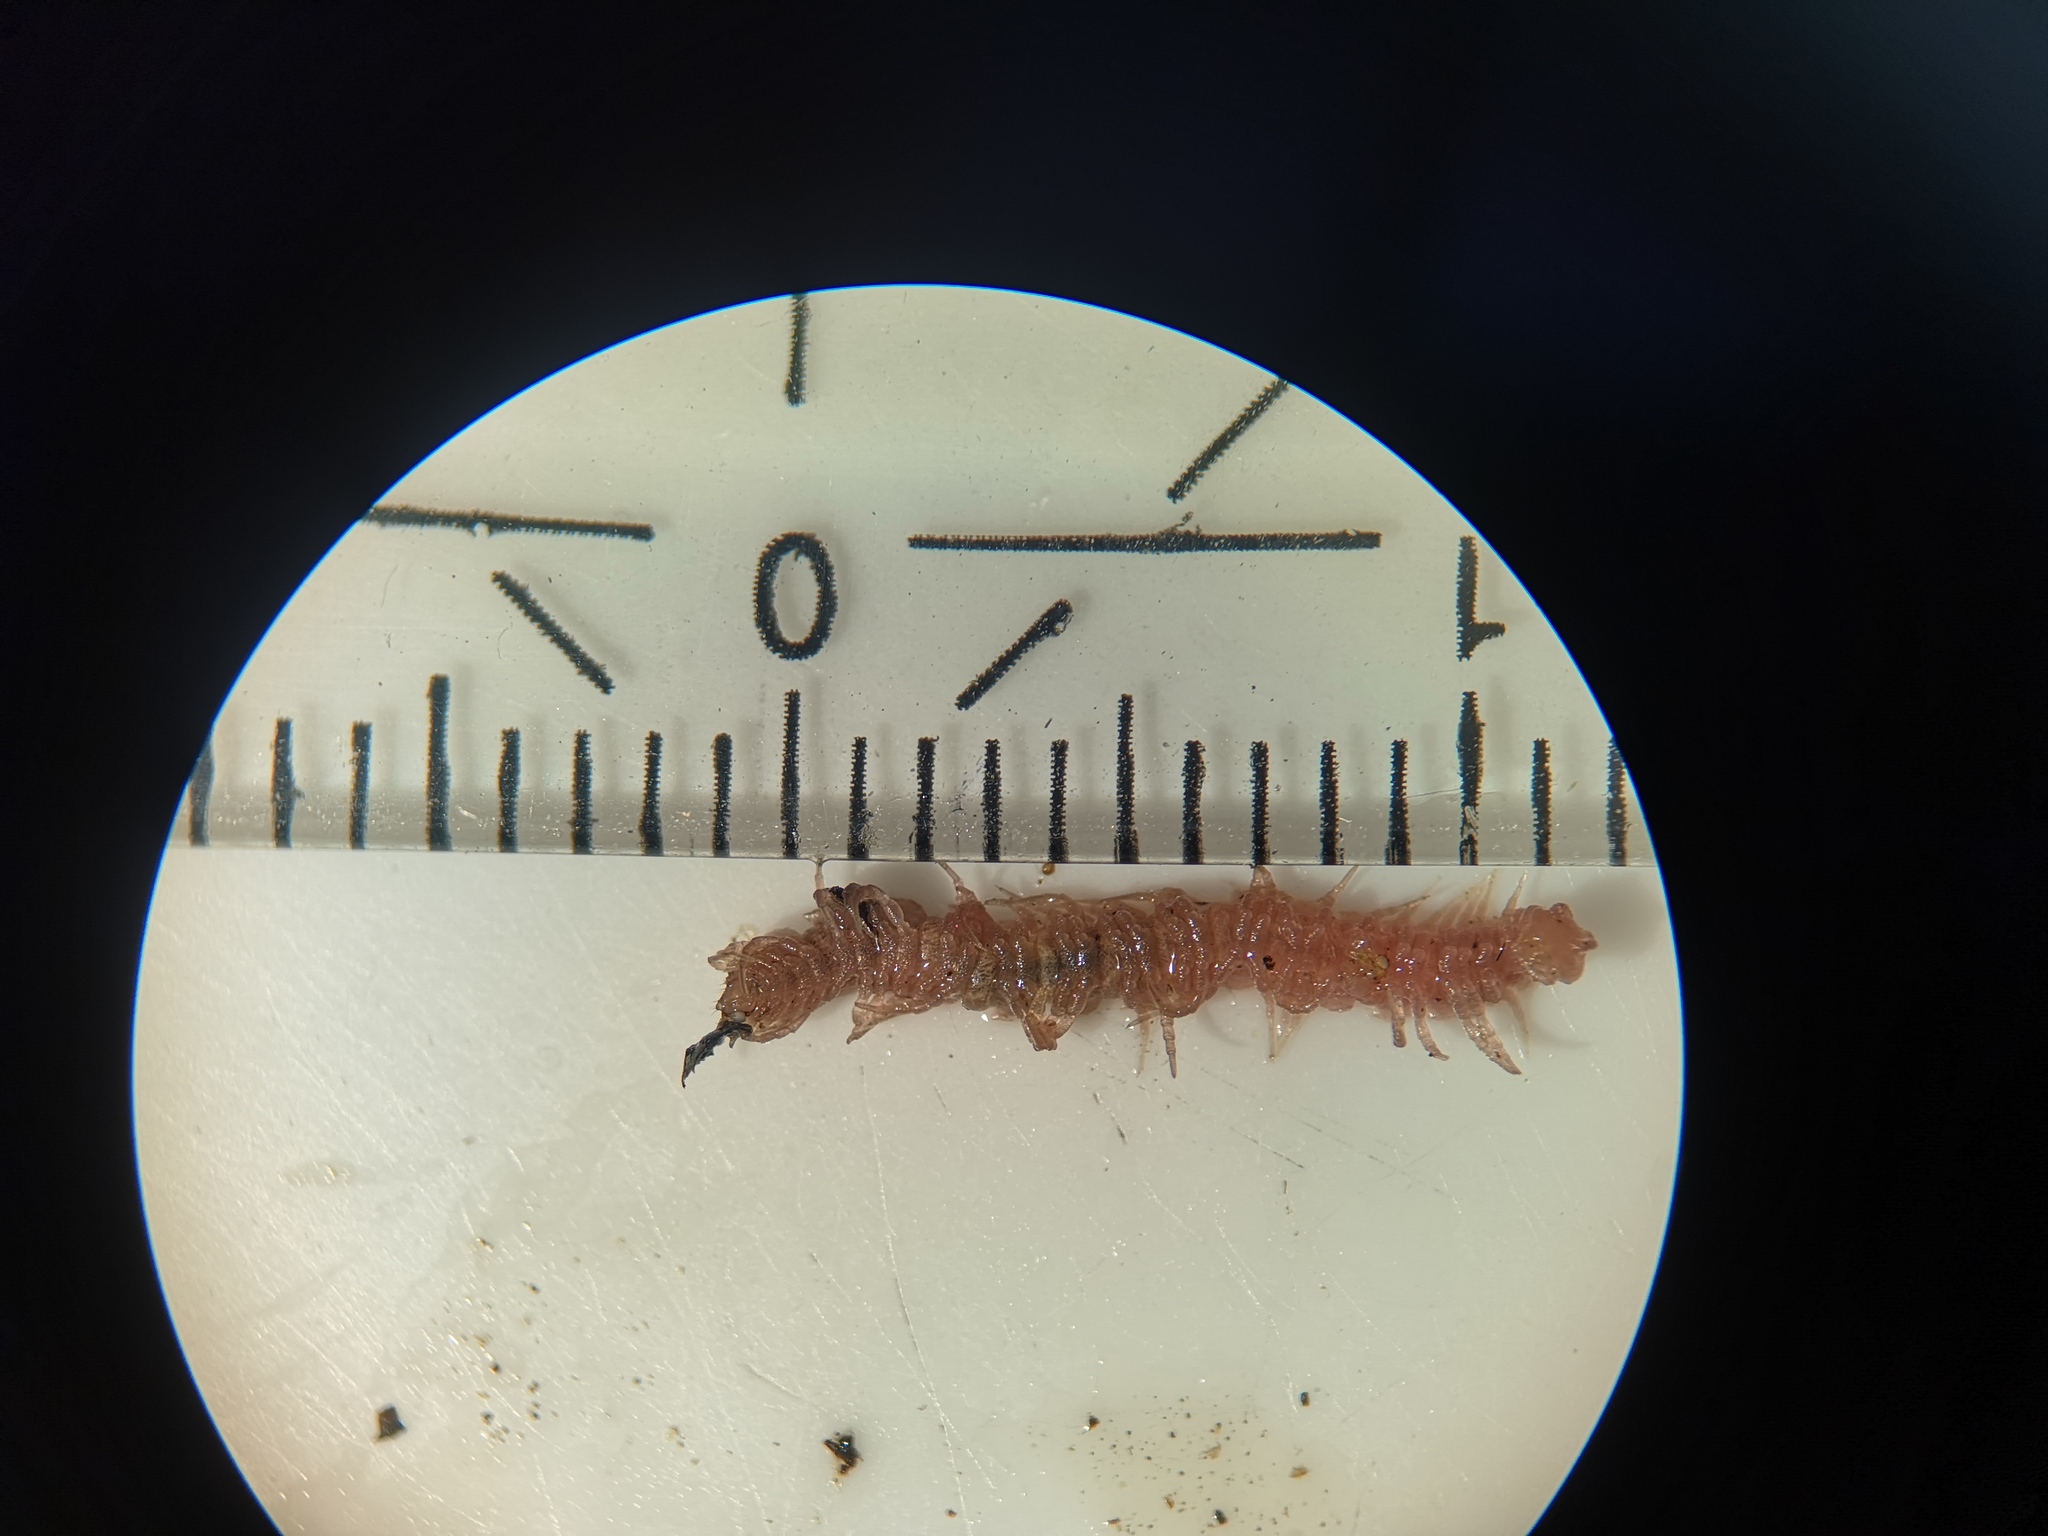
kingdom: Animalia
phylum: Arthropoda
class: Diplopoda
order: Polydesmida
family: Polydesmidae
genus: Polydesmus
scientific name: Polydesmus denticulatus
